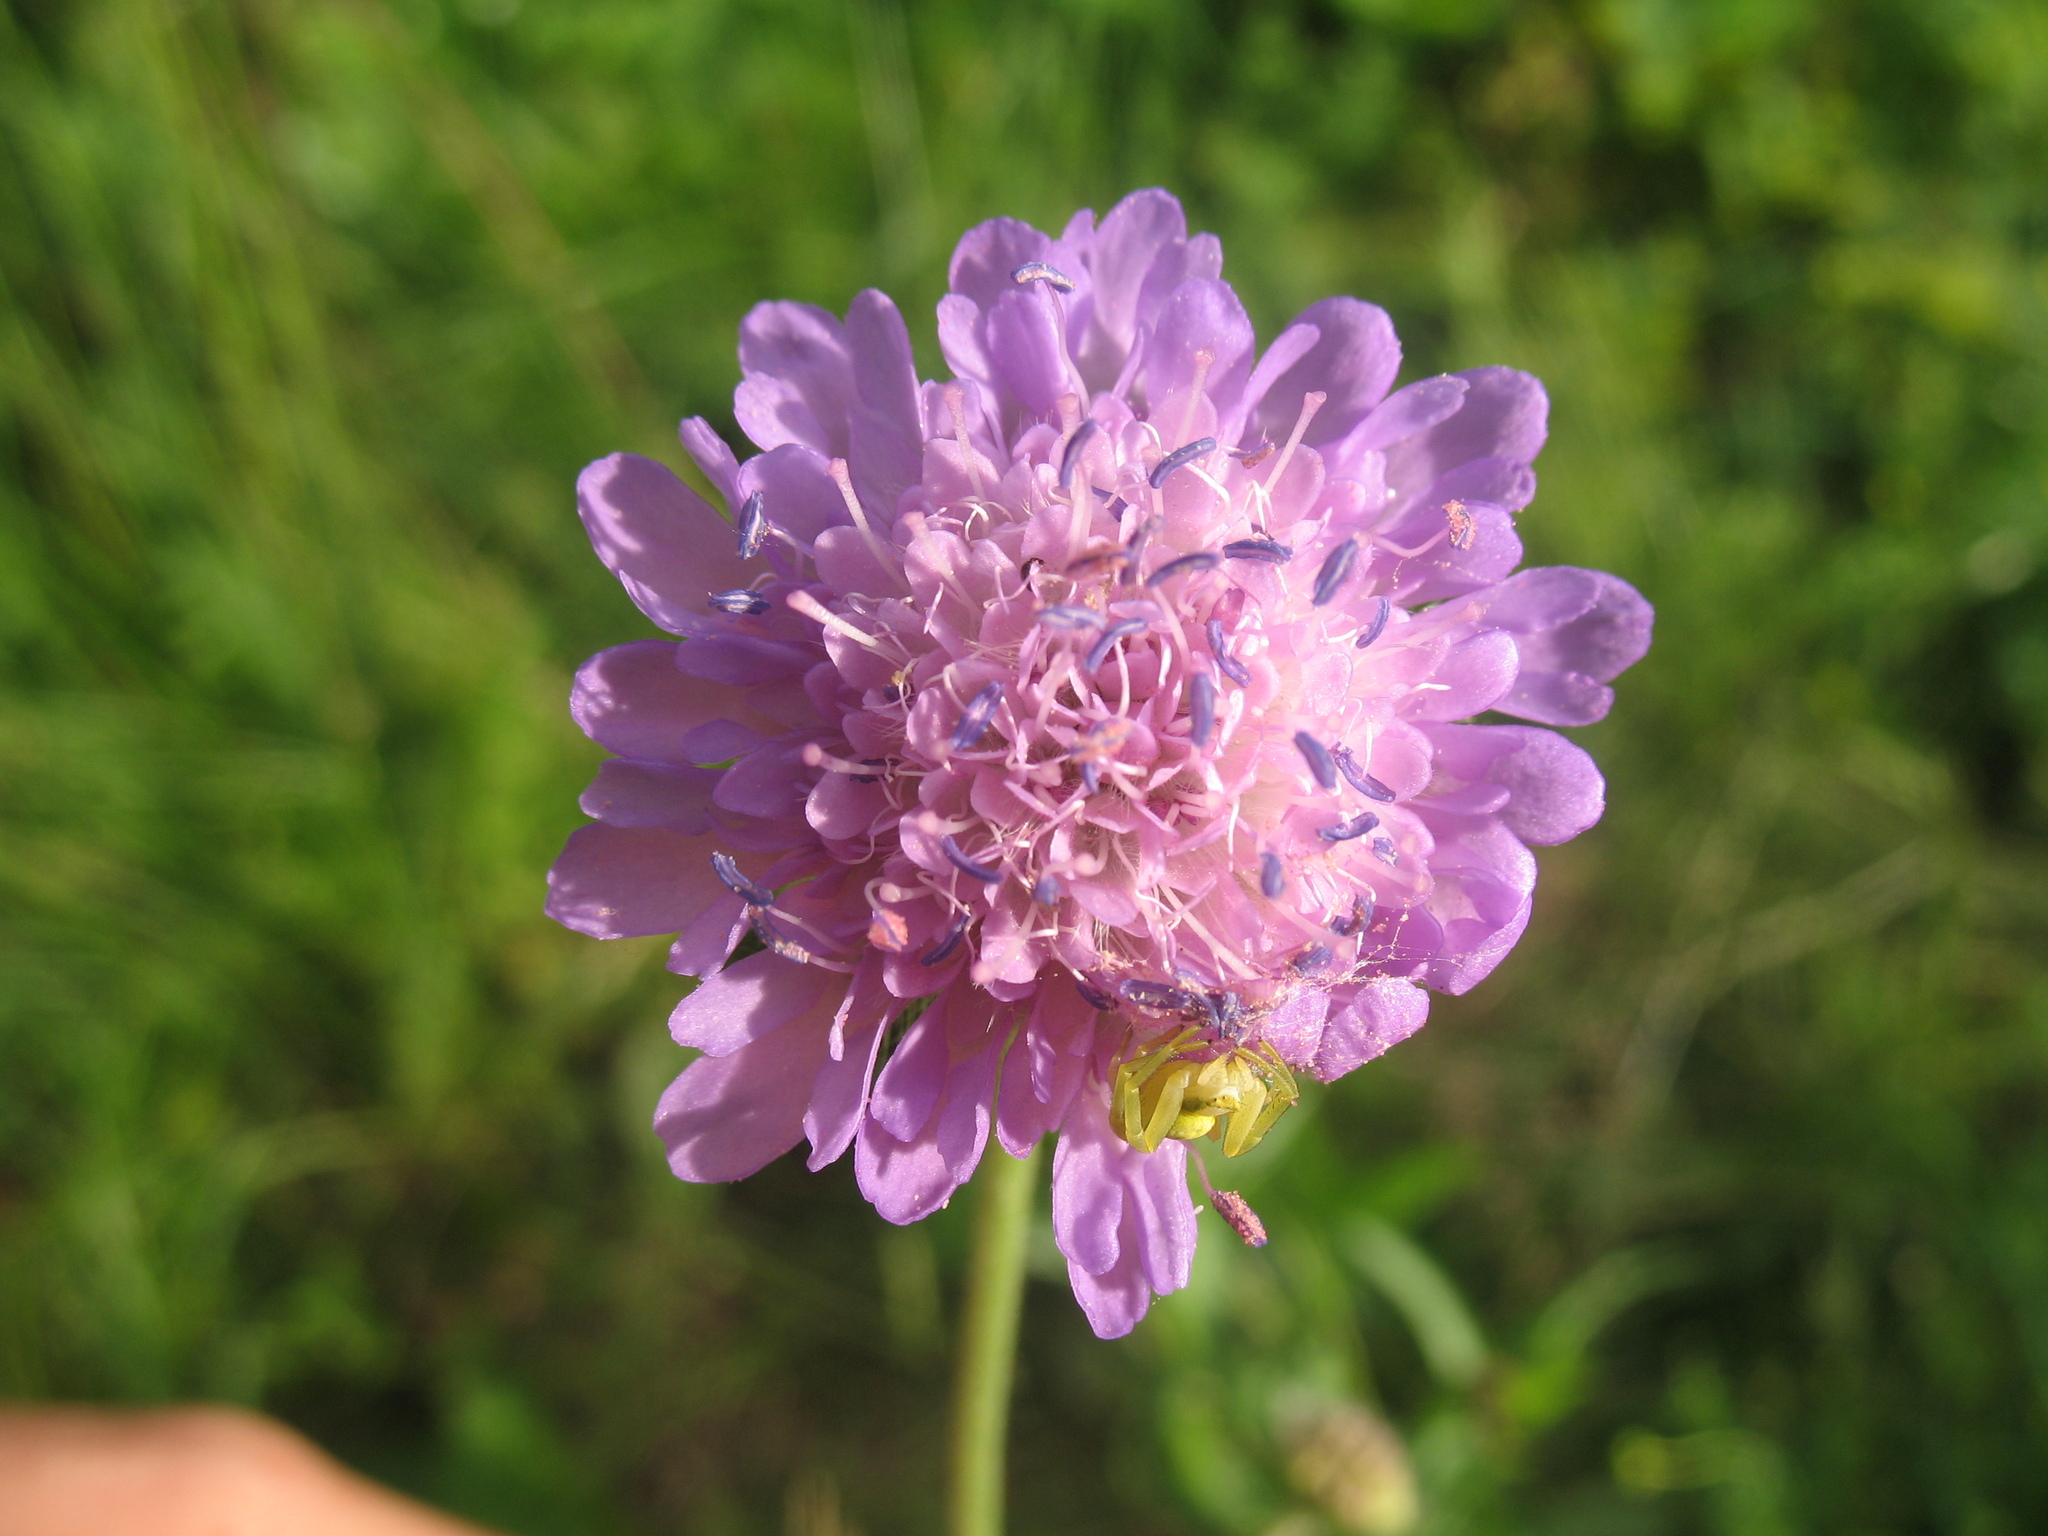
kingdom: Plantae
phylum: Tracheophyta
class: Magnoliopsida
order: Dipsacales
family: Caprifoliaceae
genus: Knautia
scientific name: Knautia arvensis
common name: Field scabiosa
